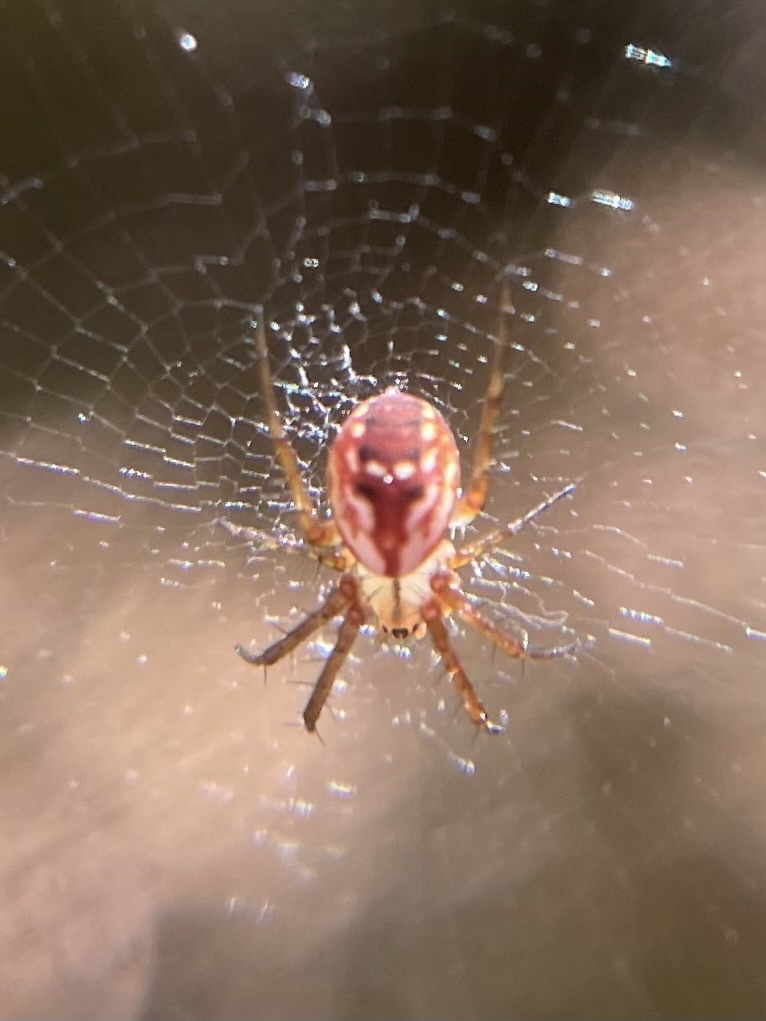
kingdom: Animalia
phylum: Arthropoda
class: Arachnida
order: Araneae
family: Araneidae
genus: Mangora
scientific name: Mangora placida
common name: Tuft-legged orbweaver
